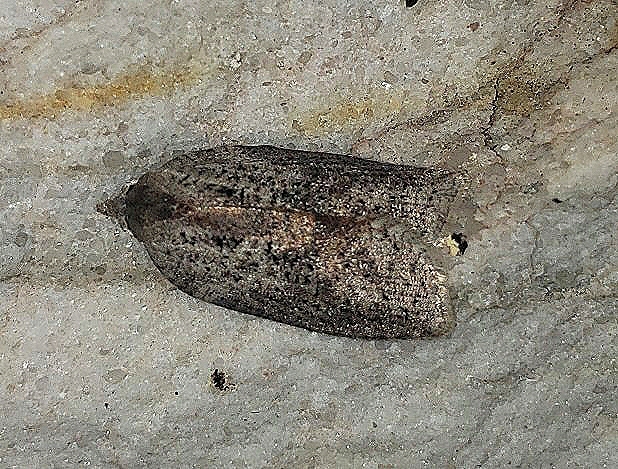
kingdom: Animalia
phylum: Arthropoda
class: Insecta
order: Lepidoptera
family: Tortricidae
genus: Amorbia
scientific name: Amorbia humerosana
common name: White-lined leafroller moth
